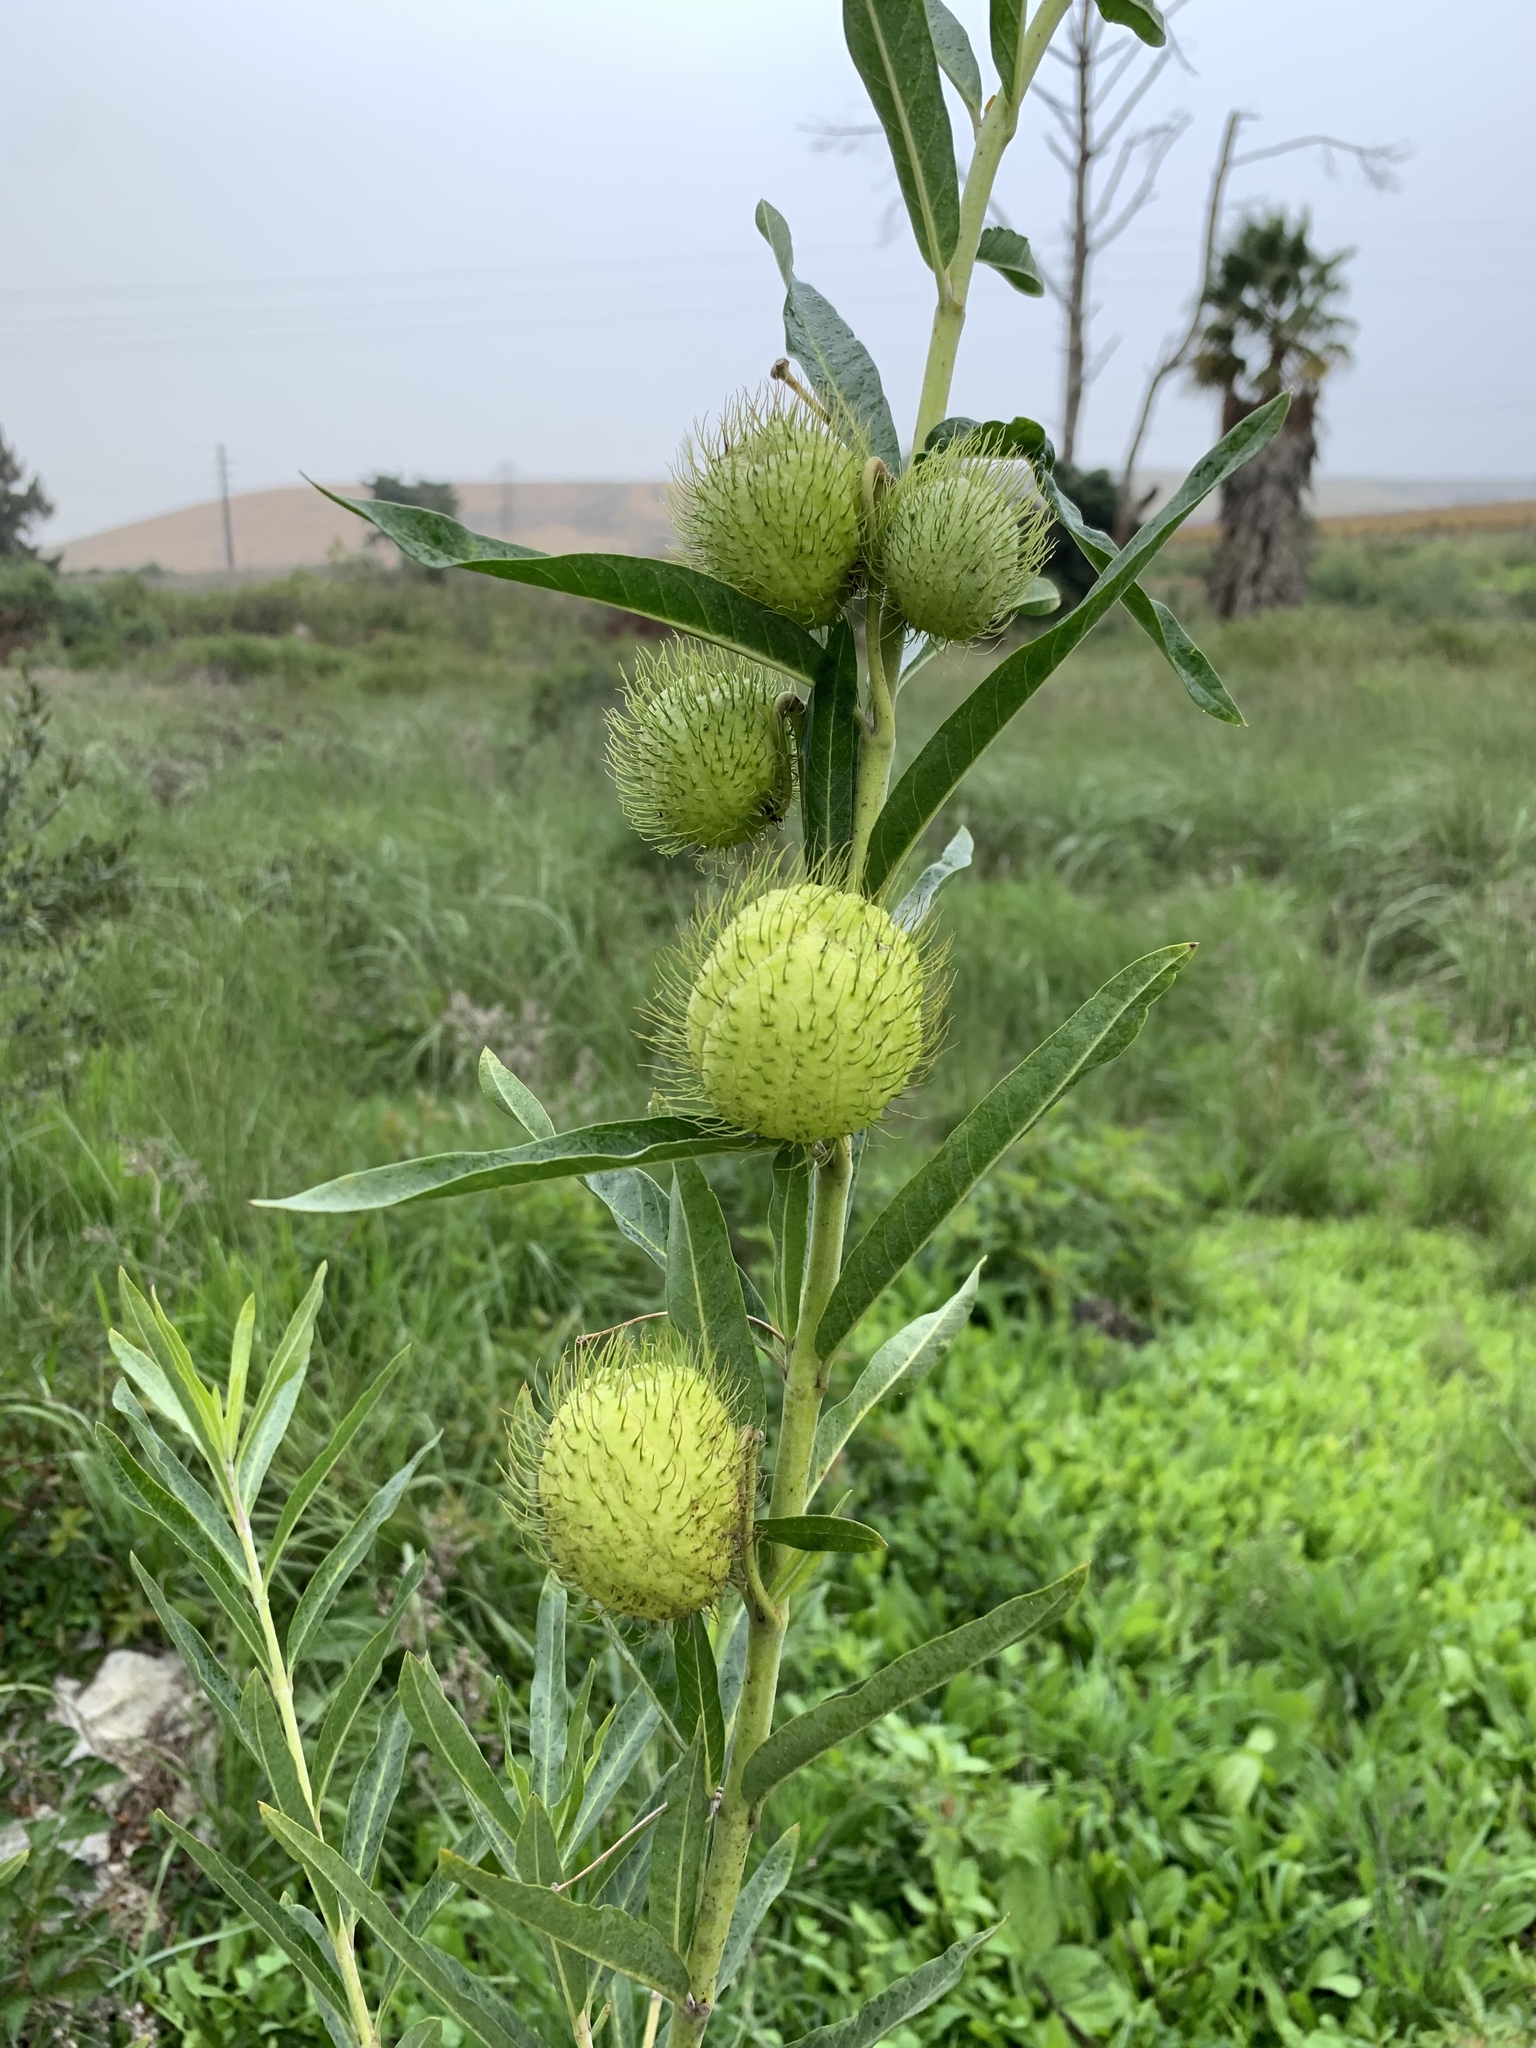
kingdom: Plantae
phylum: Tracheophyta
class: Magnoliopsida
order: Gentianales
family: Apocynaceae
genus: Gomphocarpus
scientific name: Gomphocarpus physocarpus
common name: Balloon cotton bush
